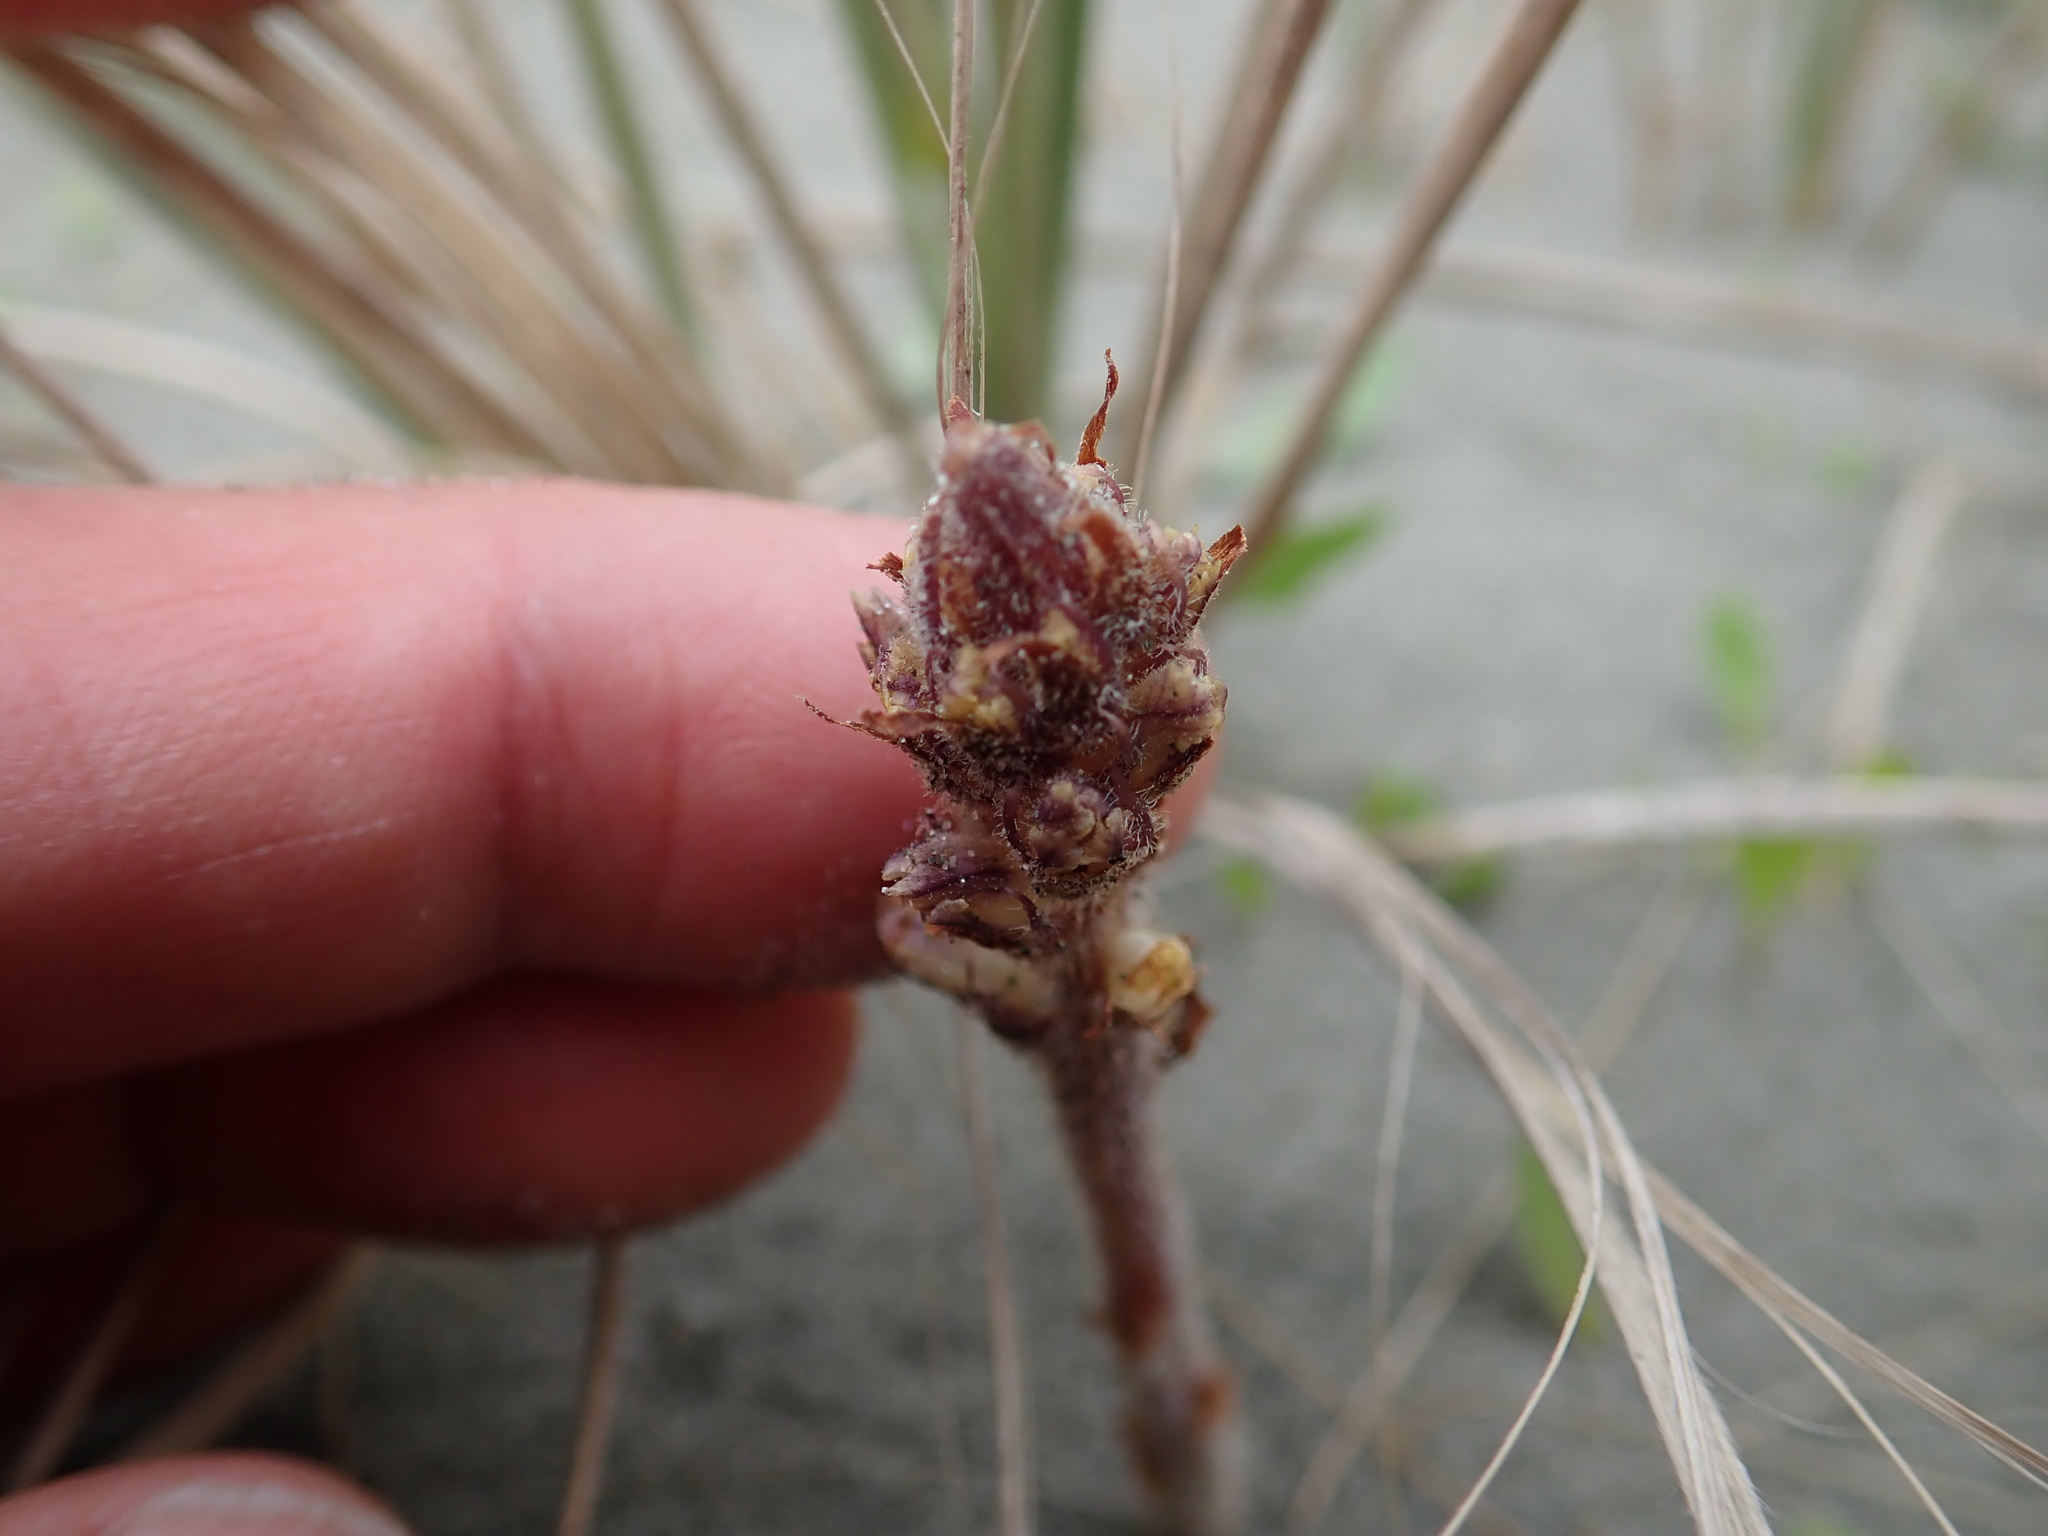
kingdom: Plantae
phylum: Tracheophyta
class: Magnoliopsida
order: Lamiales
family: Orobanchaceae
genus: Orobanche
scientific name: Orobanche minor
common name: Common broomrape
